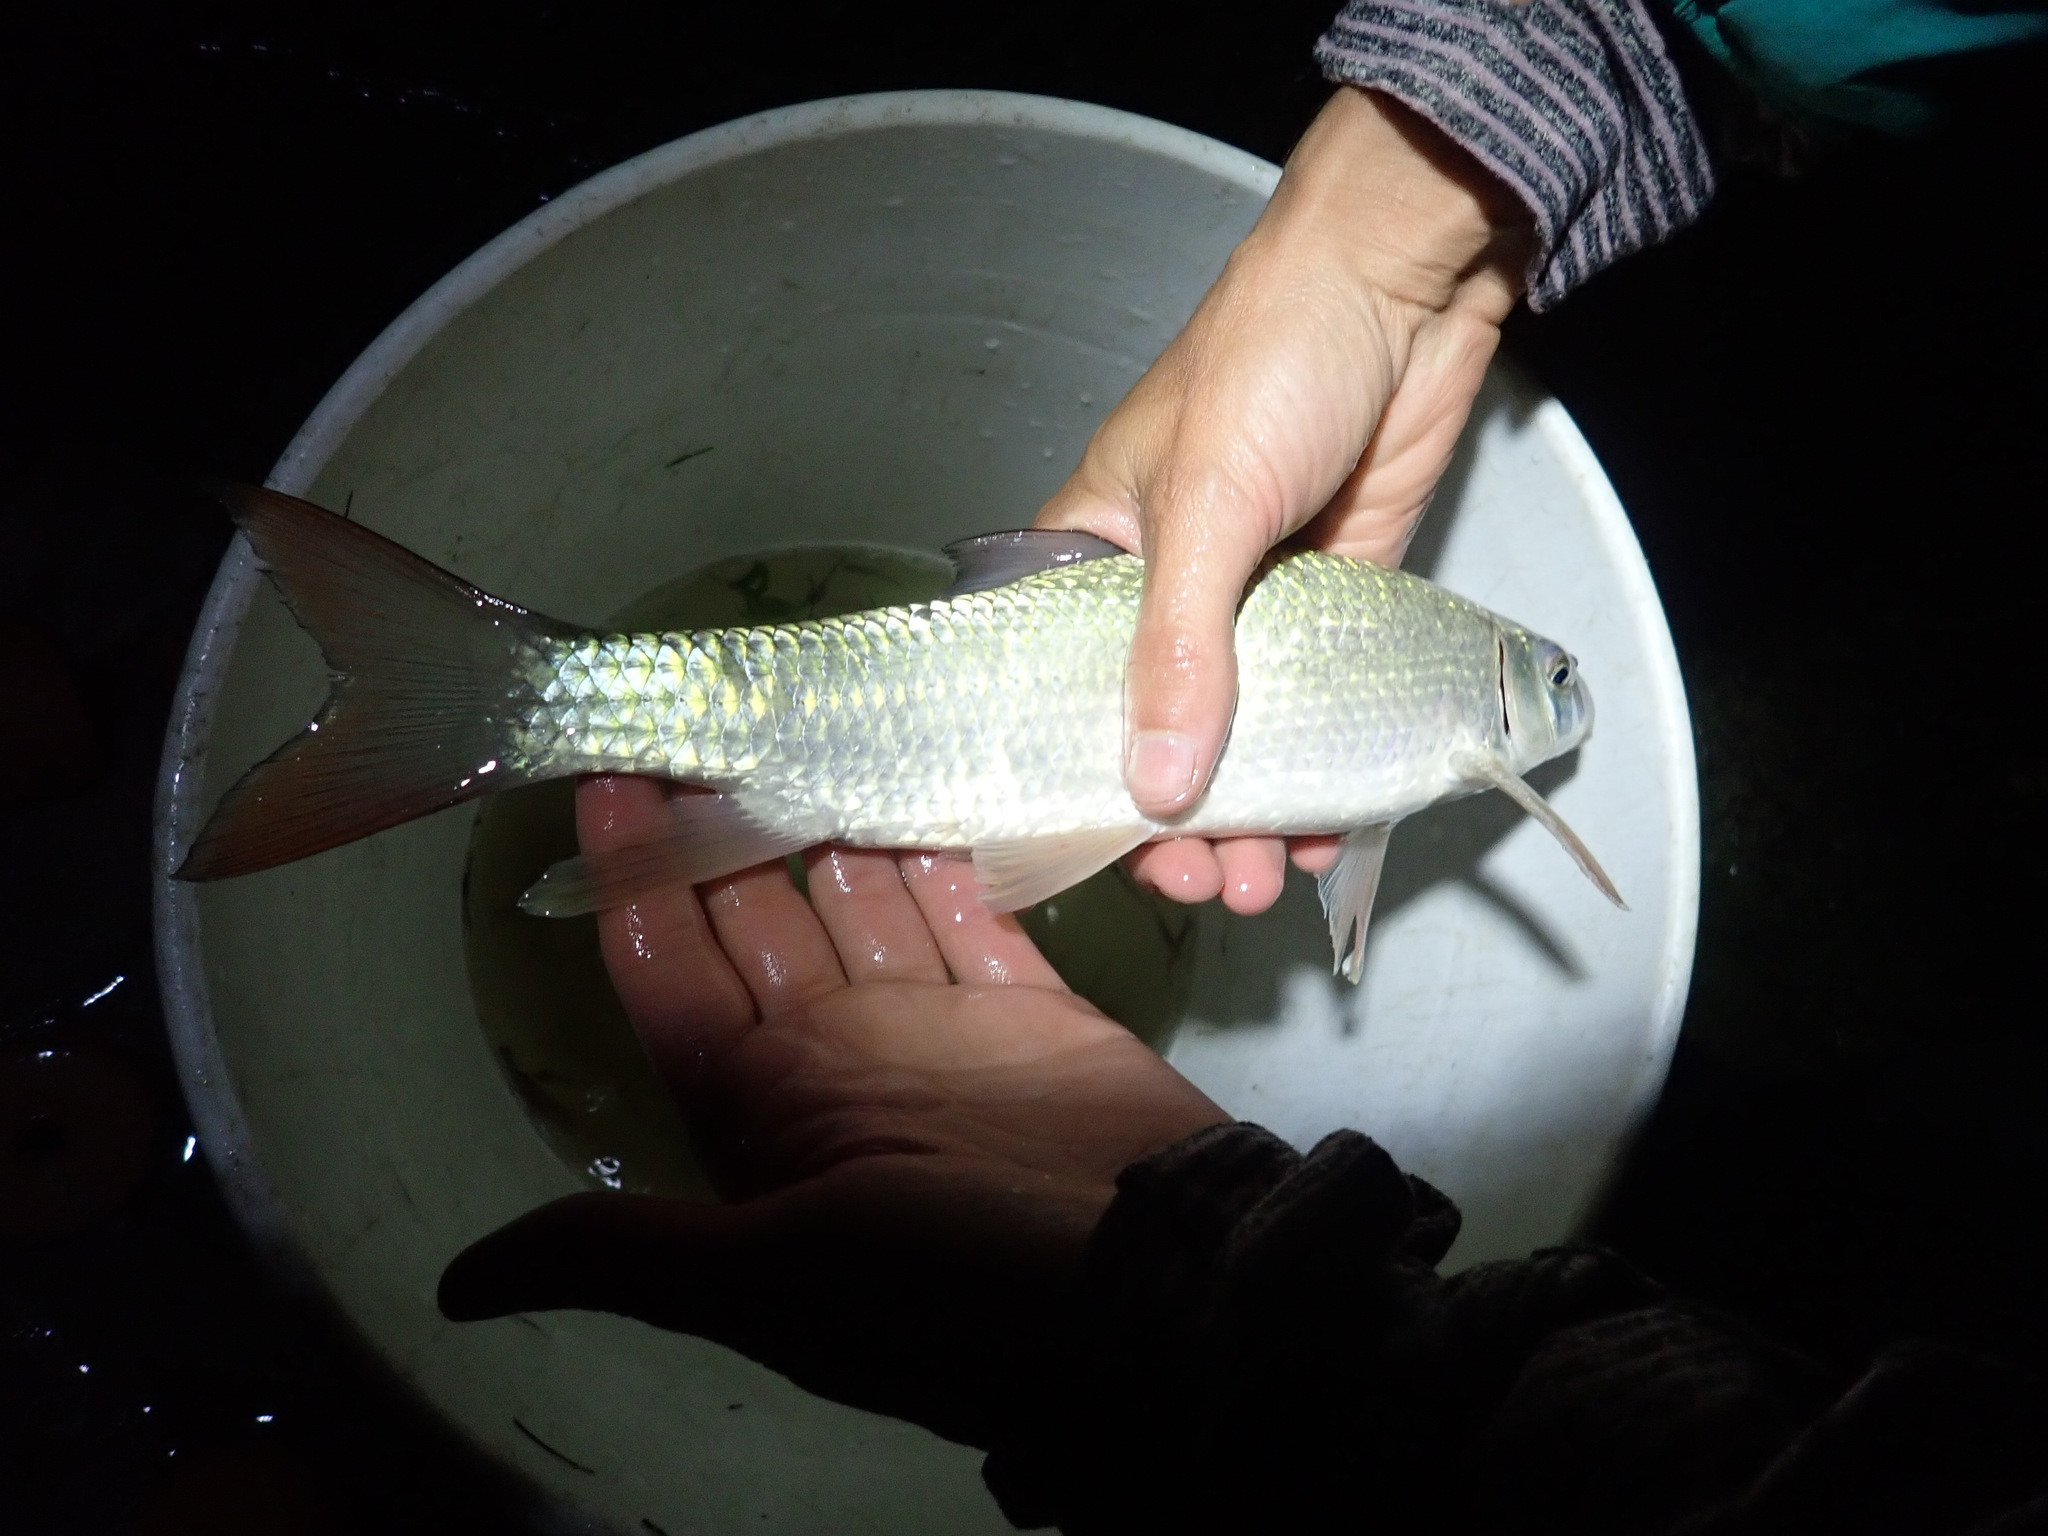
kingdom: Animalia
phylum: Chordata
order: Cypriniformes
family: Catostomidae
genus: Moxostoma
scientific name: Moxostoma macrolepidotum
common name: Shorthead redhorse
